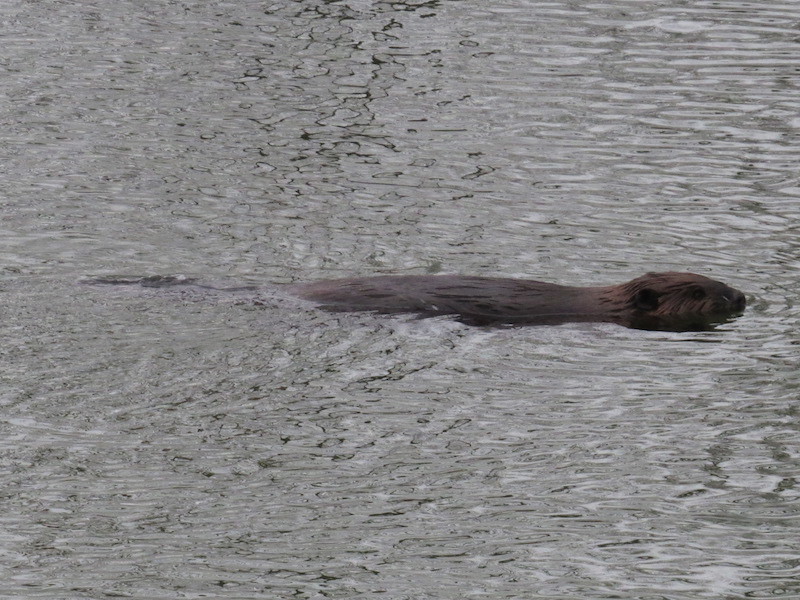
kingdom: Animalia
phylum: Chordata
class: Mammalia
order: Rodentia
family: Castoridae
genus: Castor
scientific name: Castor canadensis
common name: American beaver
